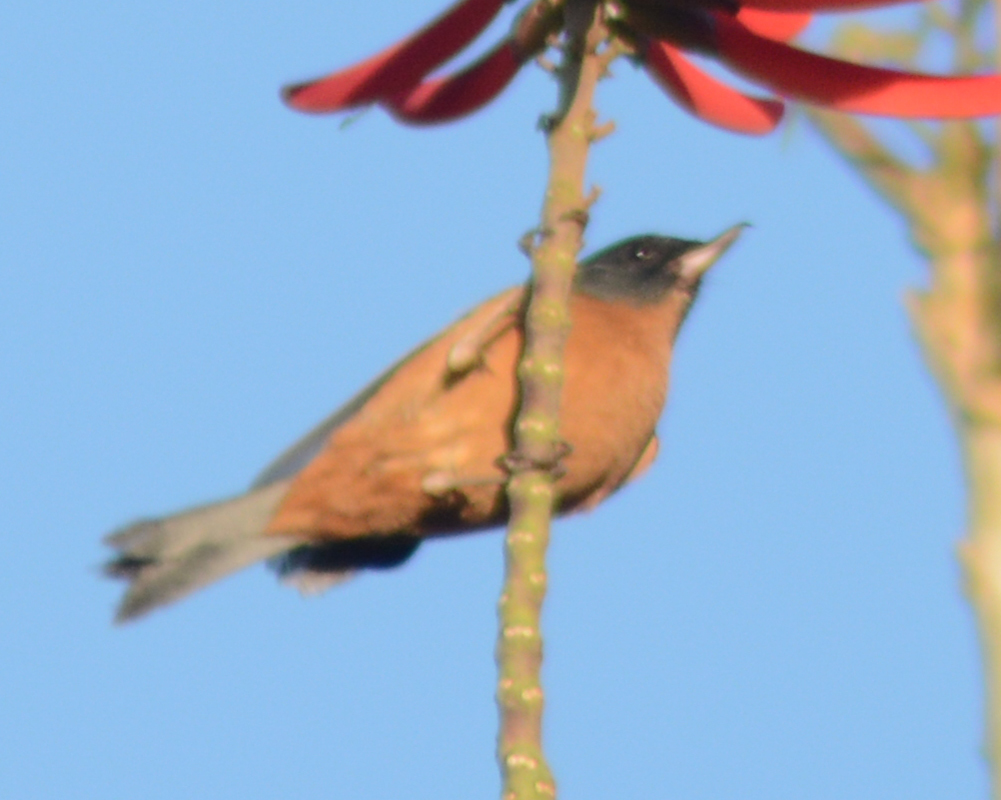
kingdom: Animalia
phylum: Chordata
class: Aves
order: Passeriformes
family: Thraupidae
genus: Diglossa
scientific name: Diglossa baritula
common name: Cinnamon-bellied flowerpiercer
